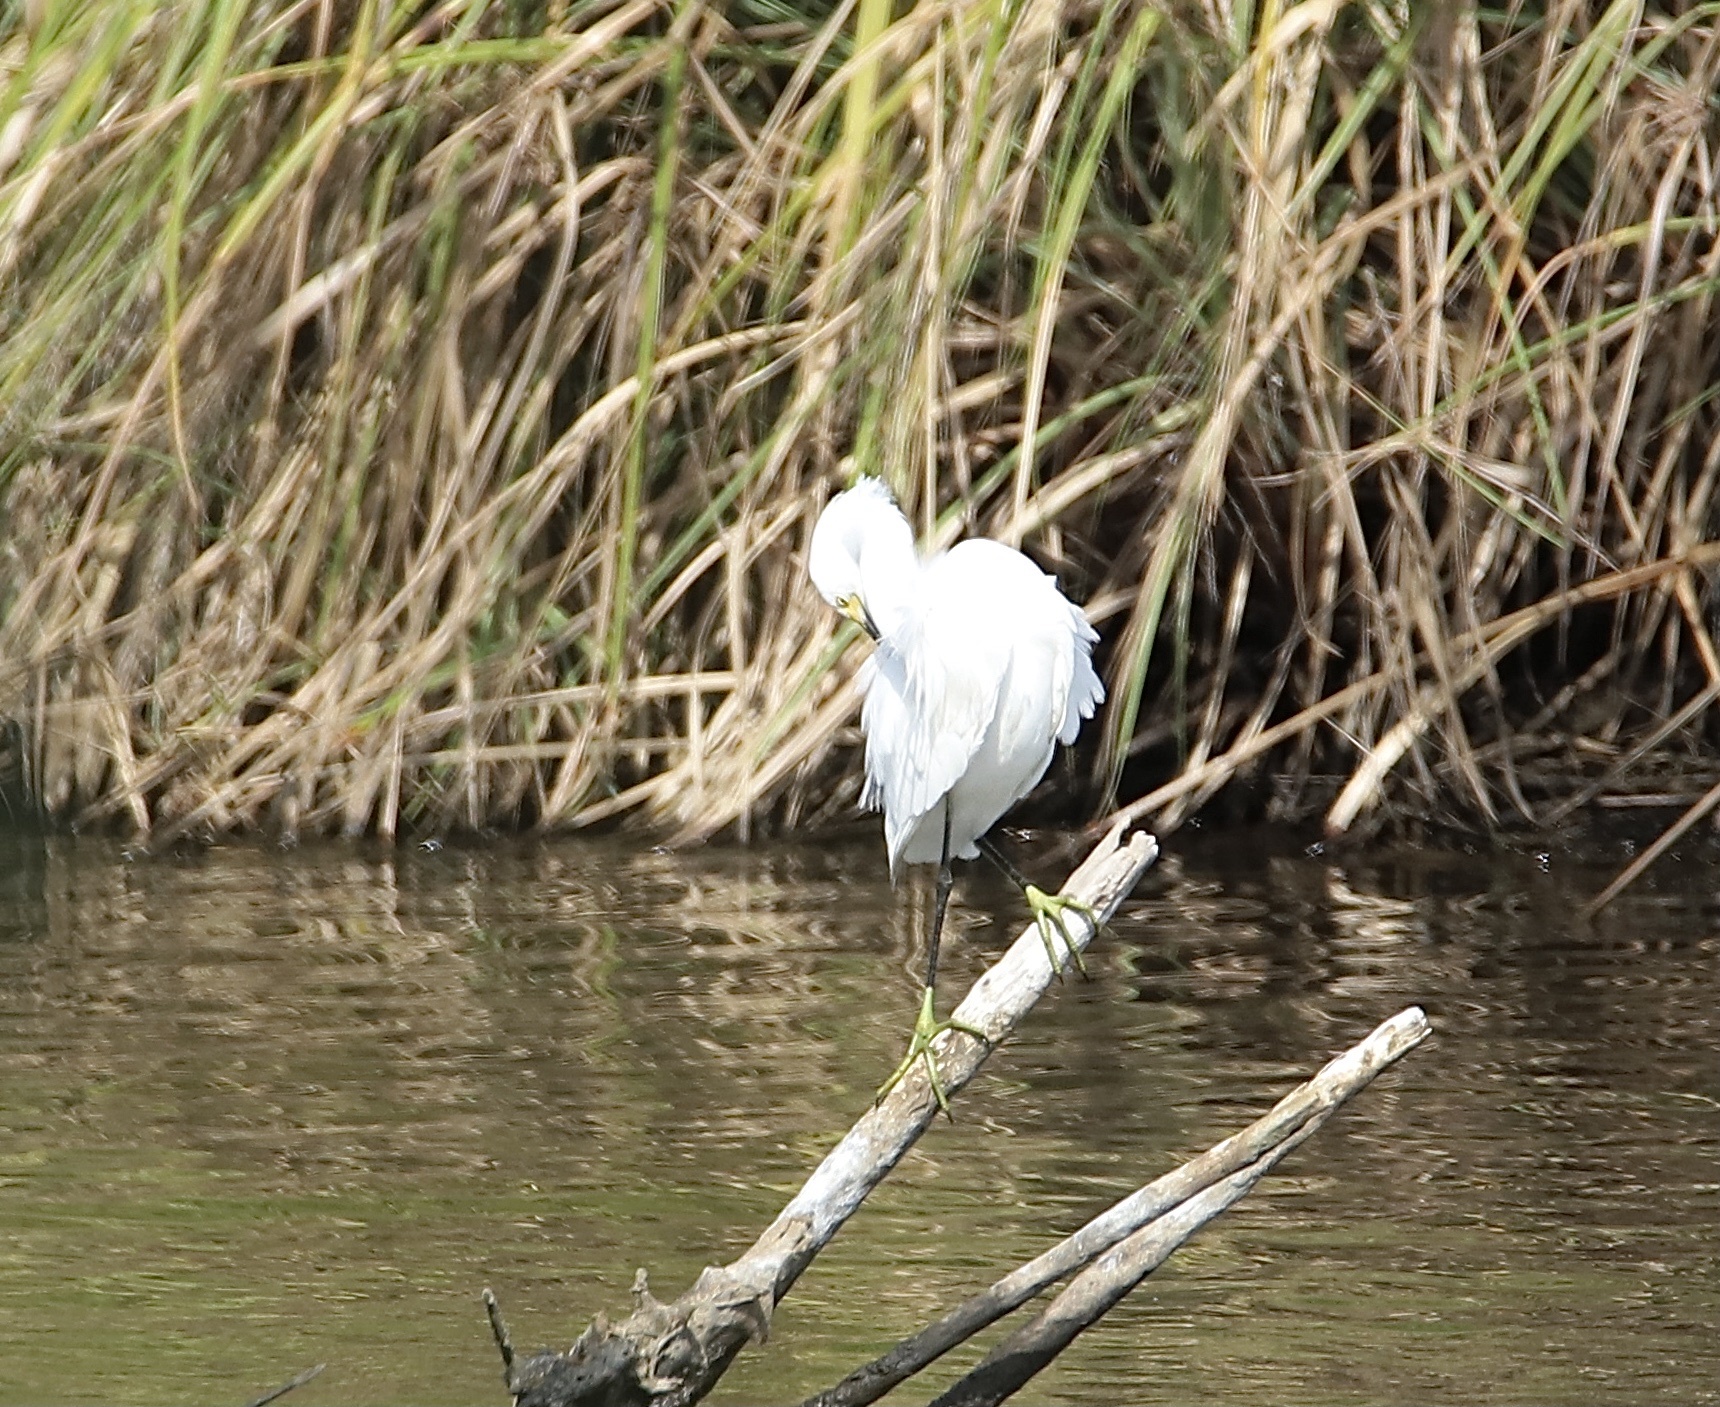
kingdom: Animalia
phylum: Chordata
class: Aves
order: Pelecaniformes
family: Ardeidae
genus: Egretta
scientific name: Egretta thula
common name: Snowy egret
